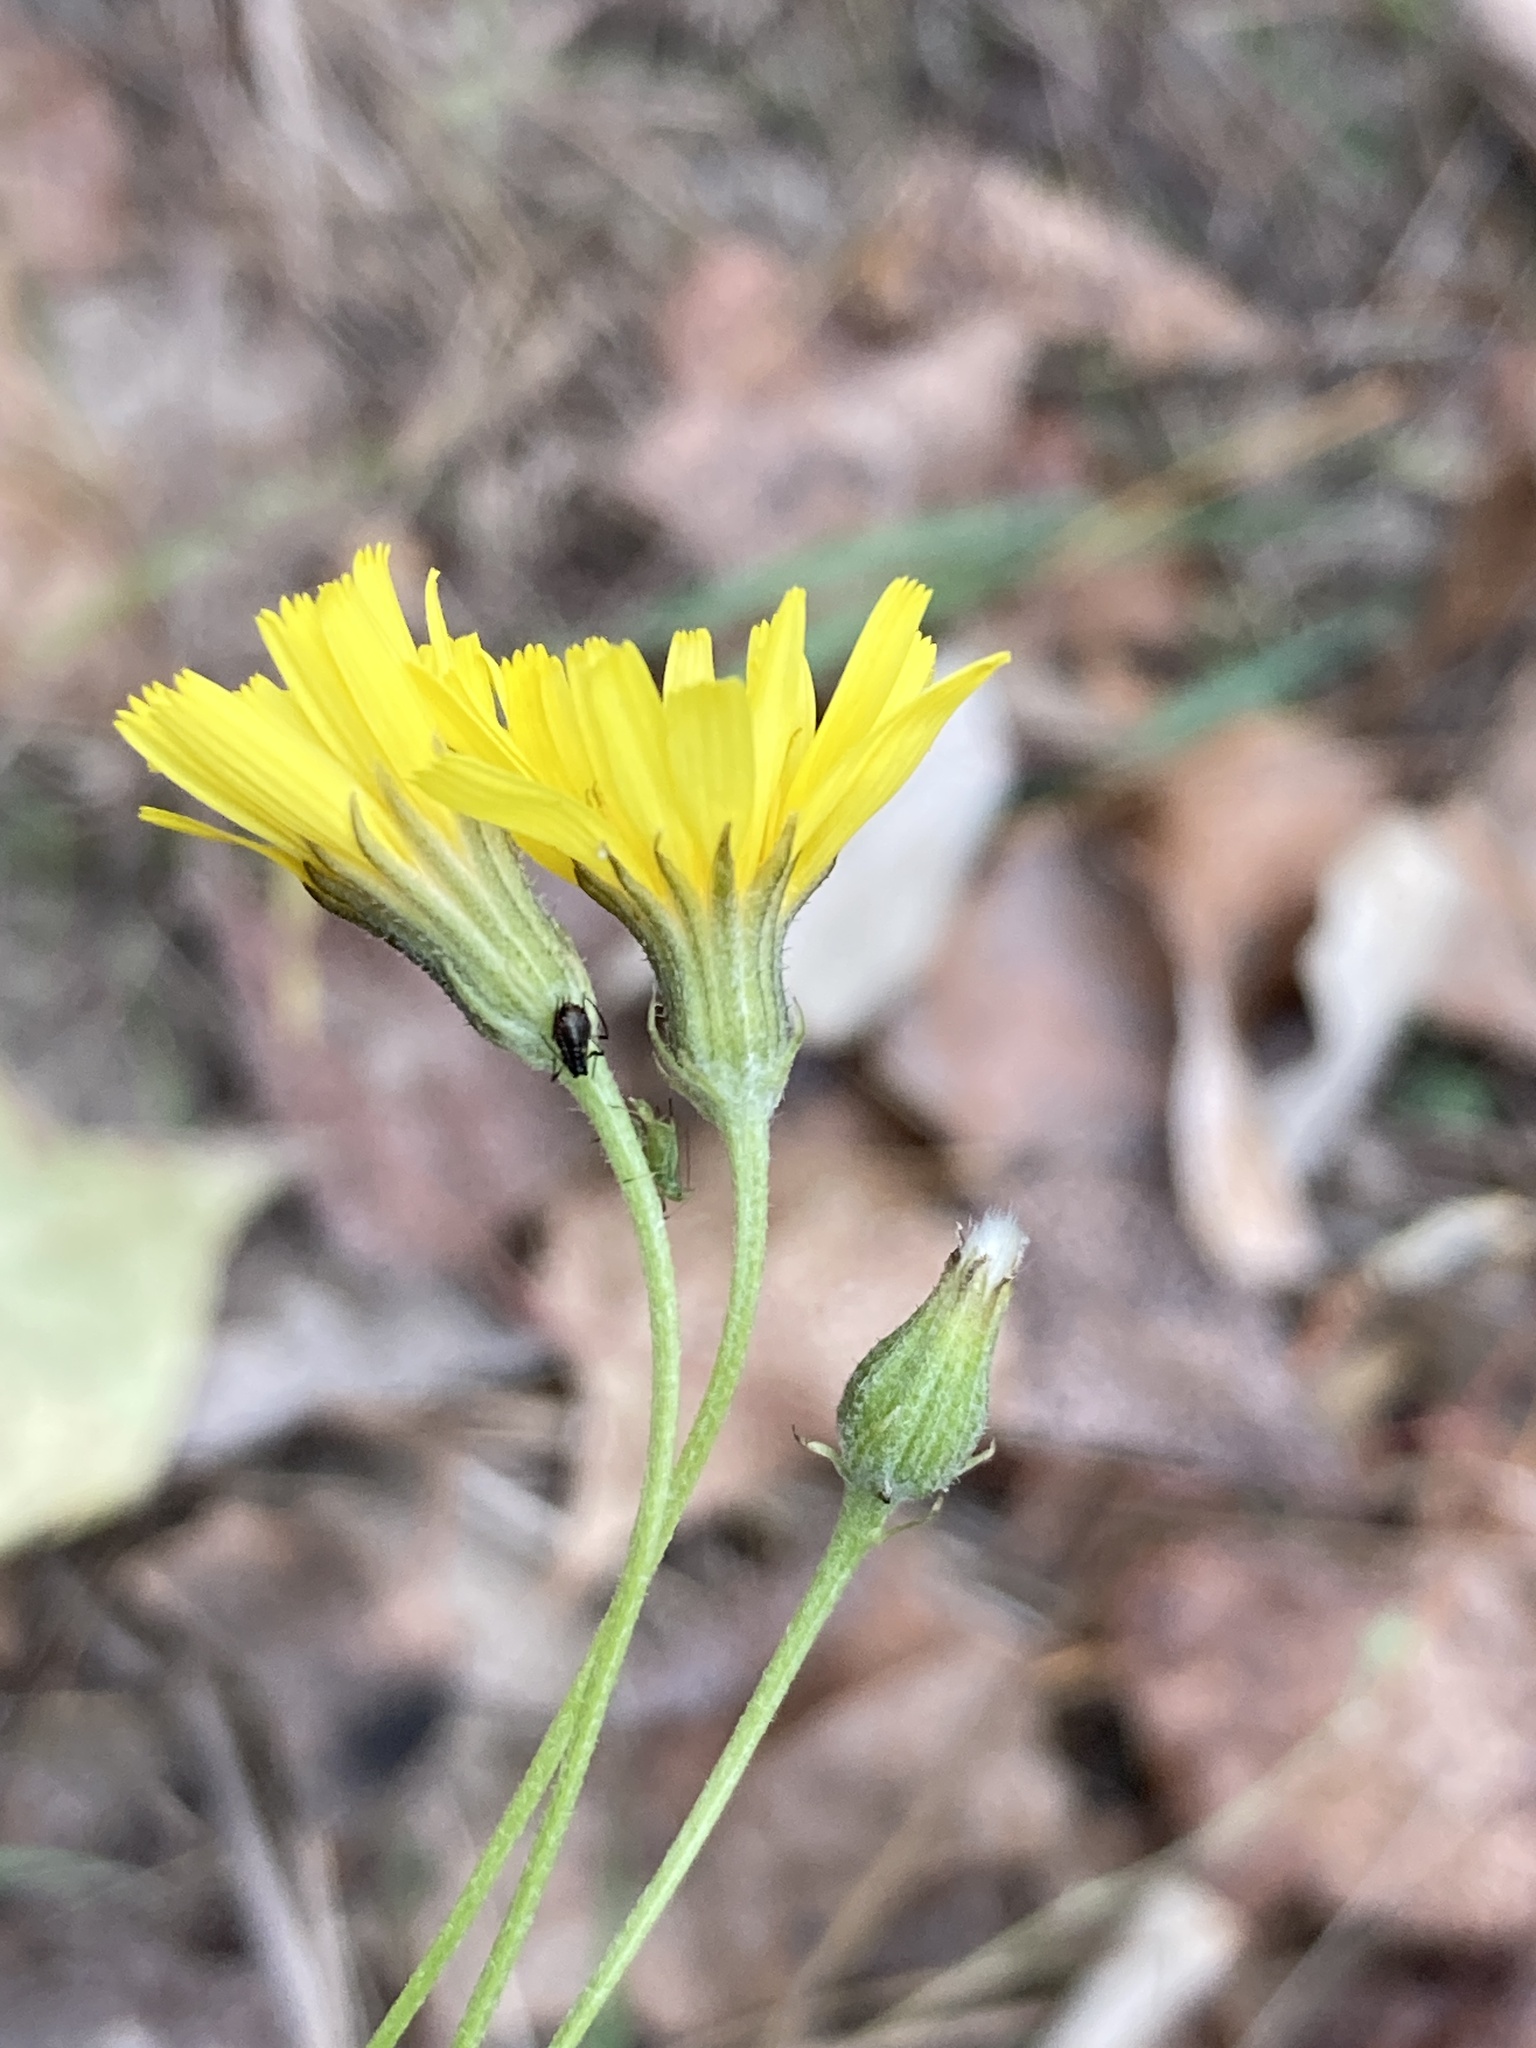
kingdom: Plantae
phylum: Tracheophyta
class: Magnoliopsida
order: Asterales
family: Asteraceae
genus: Crepis
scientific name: Crepis tectorum
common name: Narrow-leaved hawk's-beard
